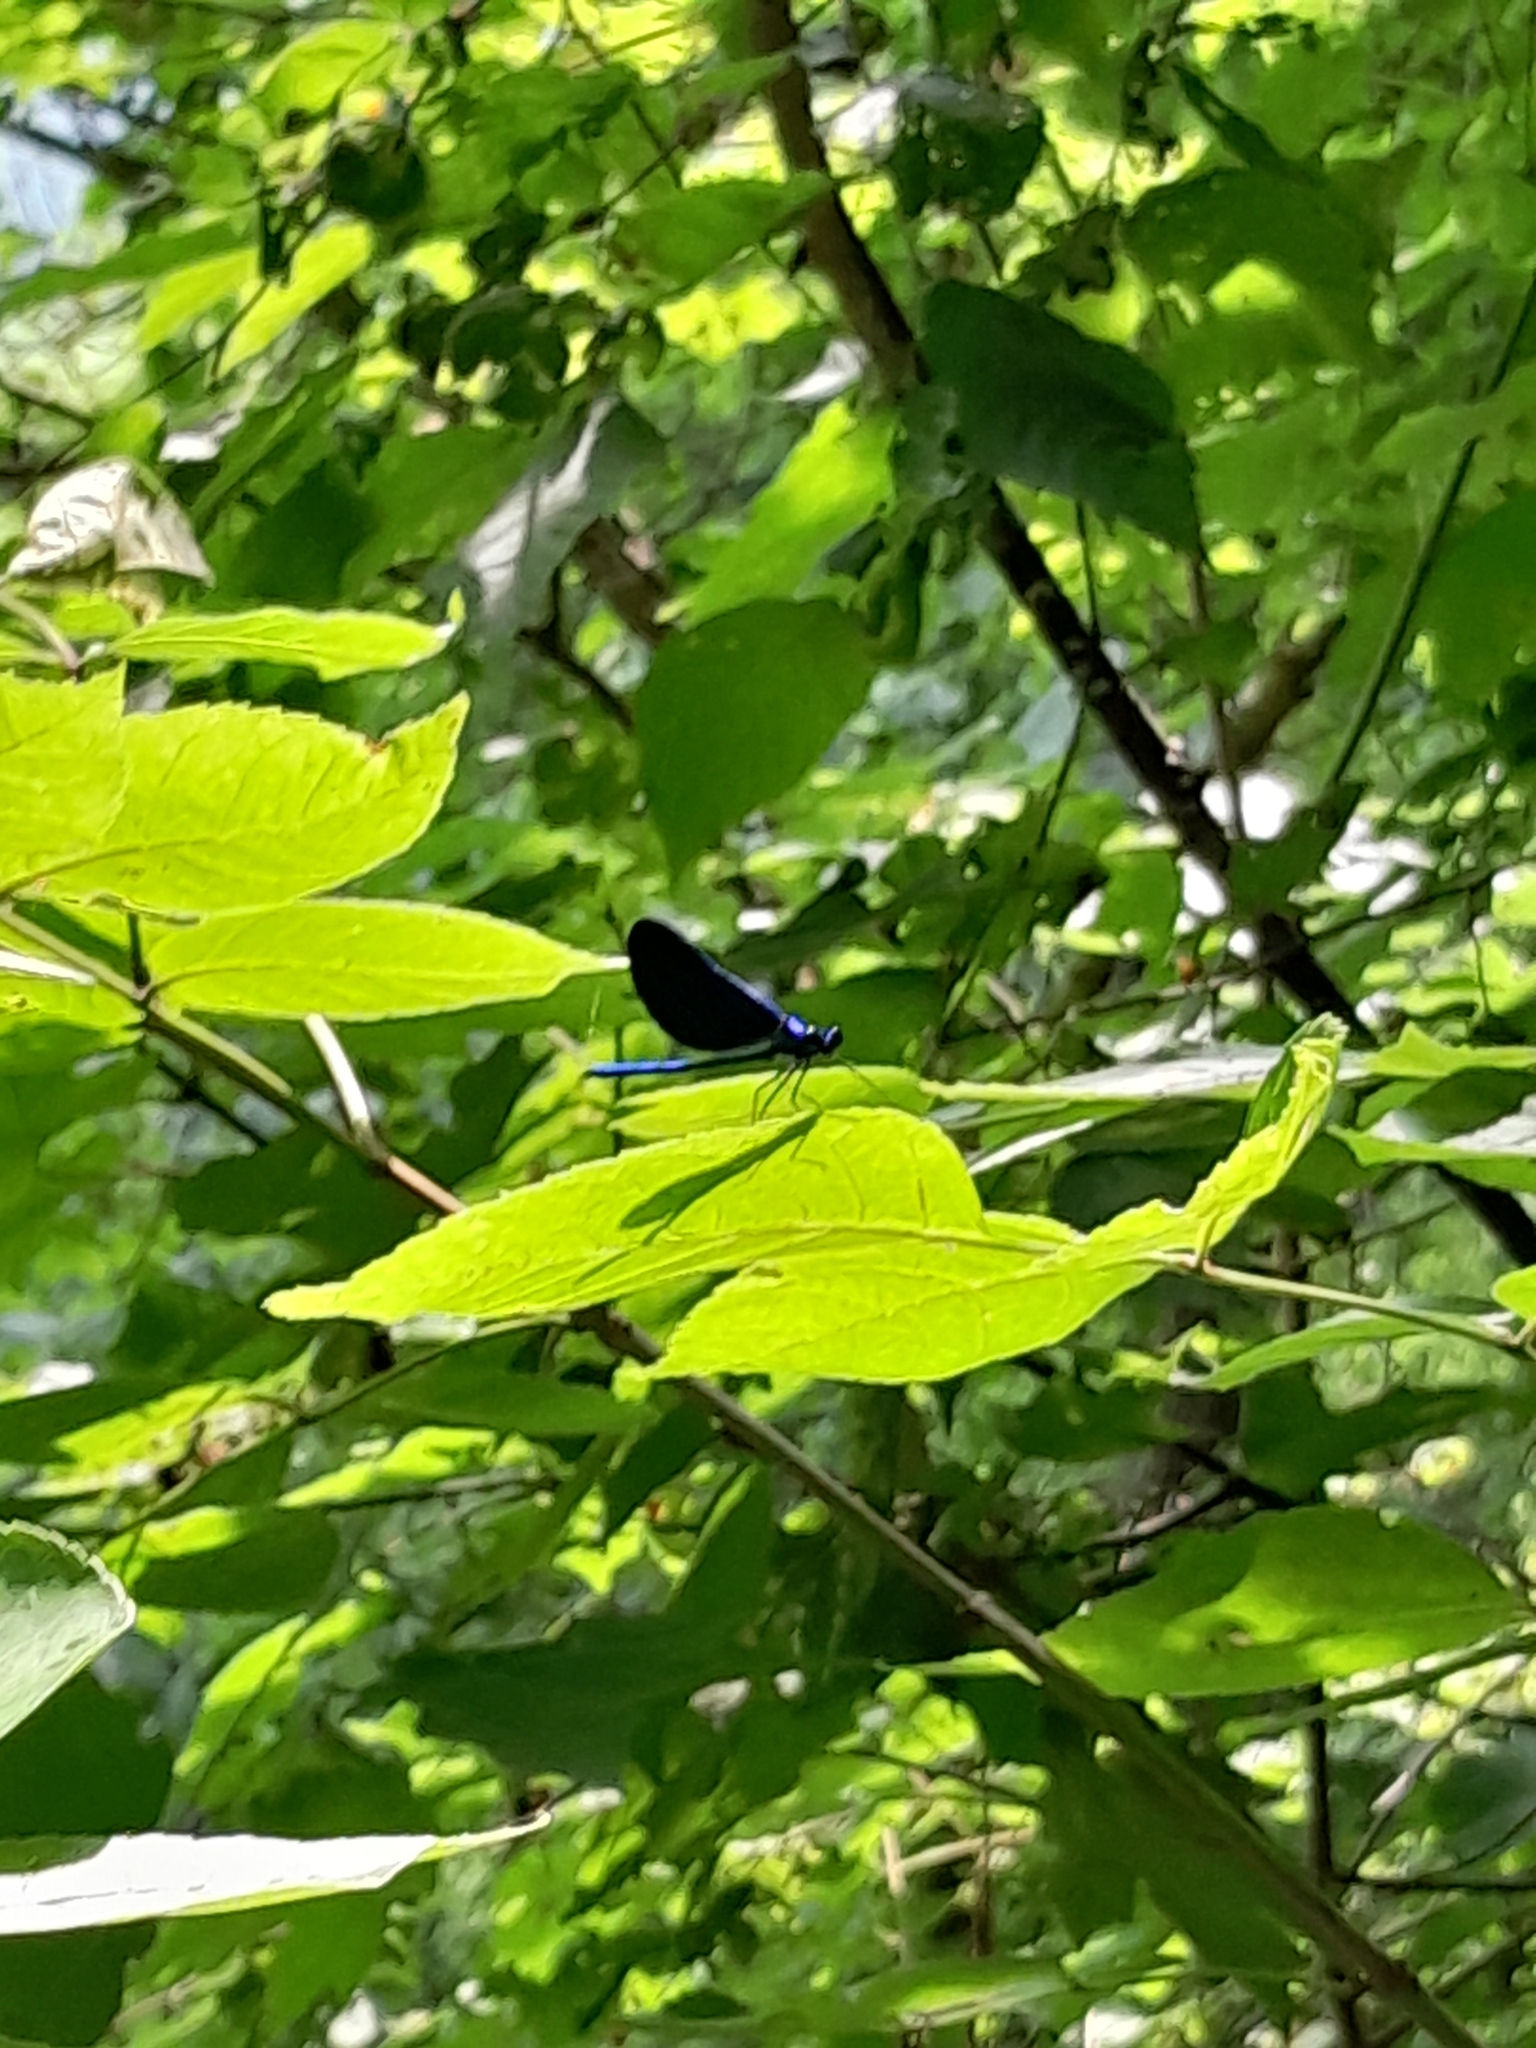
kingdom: Animalia
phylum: Arthropoda
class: Insecta
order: Odonata
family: Calopterygidae
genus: Calopteryx
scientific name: Calopteryx maculata
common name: Ebony jewelwing
